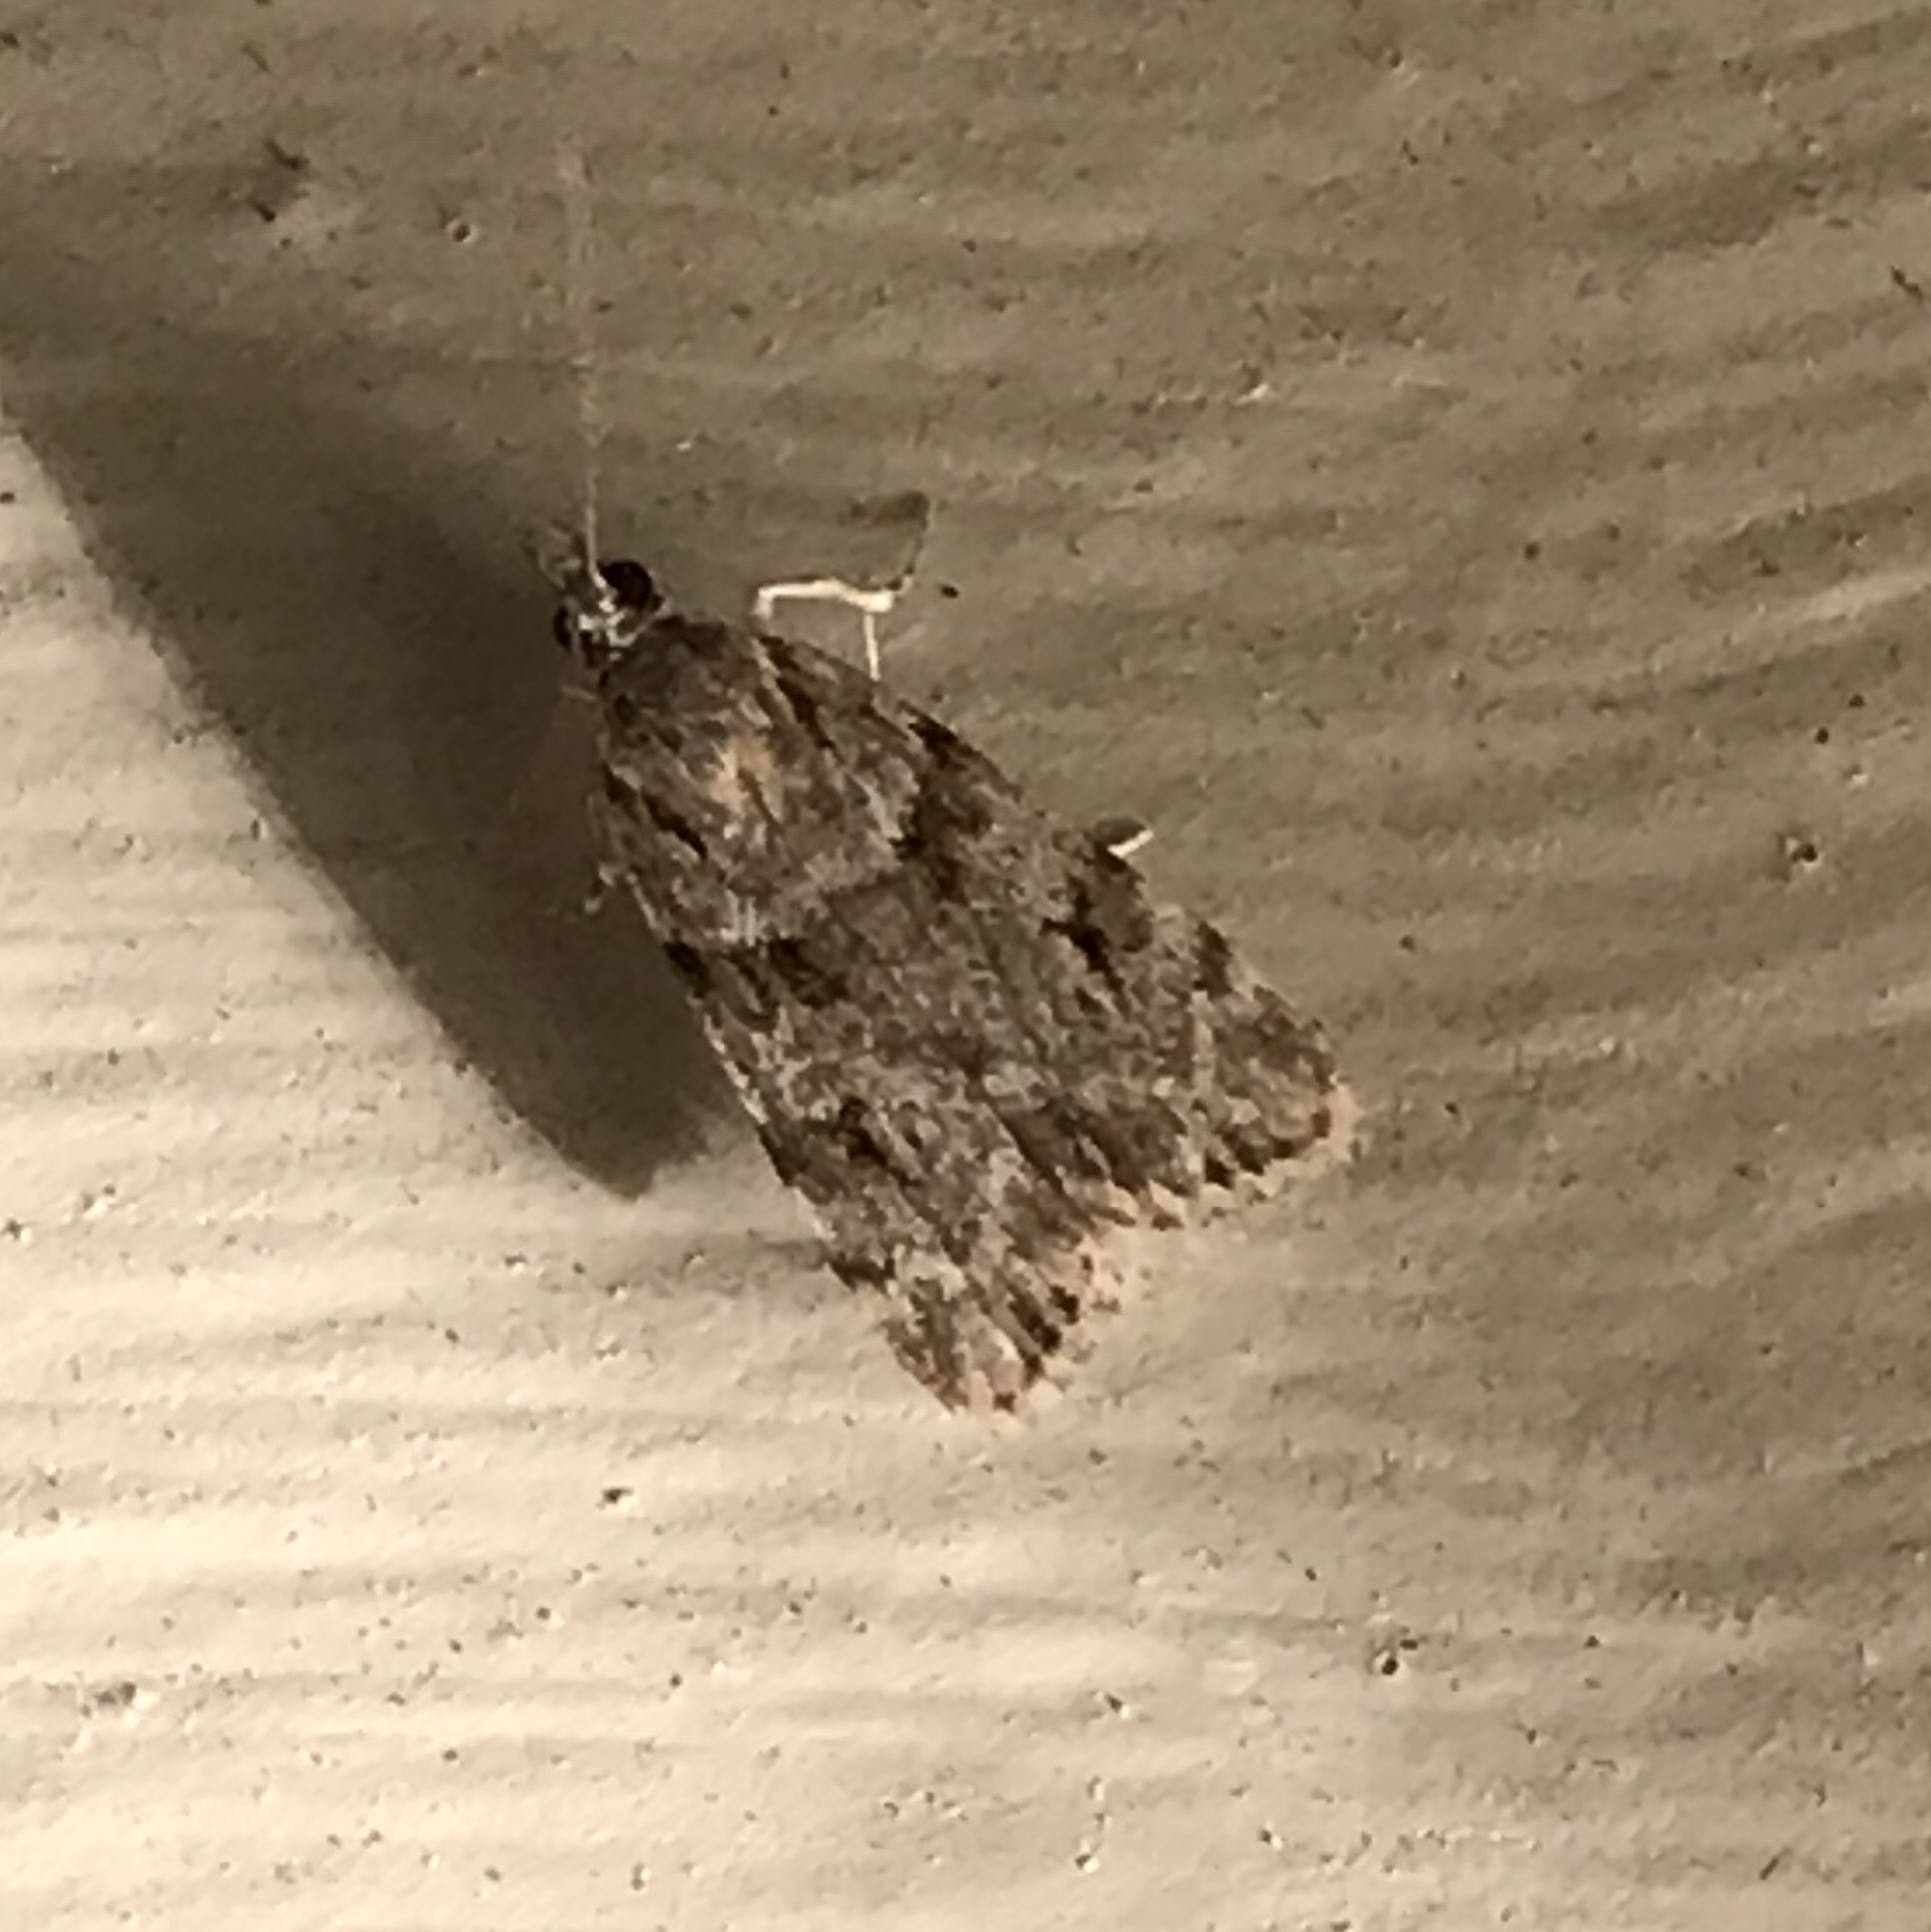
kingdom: Animalia
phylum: Arthropoda
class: Insecta
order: Lepidoptera
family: Crambidae
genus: Scoparia
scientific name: Scoparia biplagialis
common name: Double-striped scoparia moth
